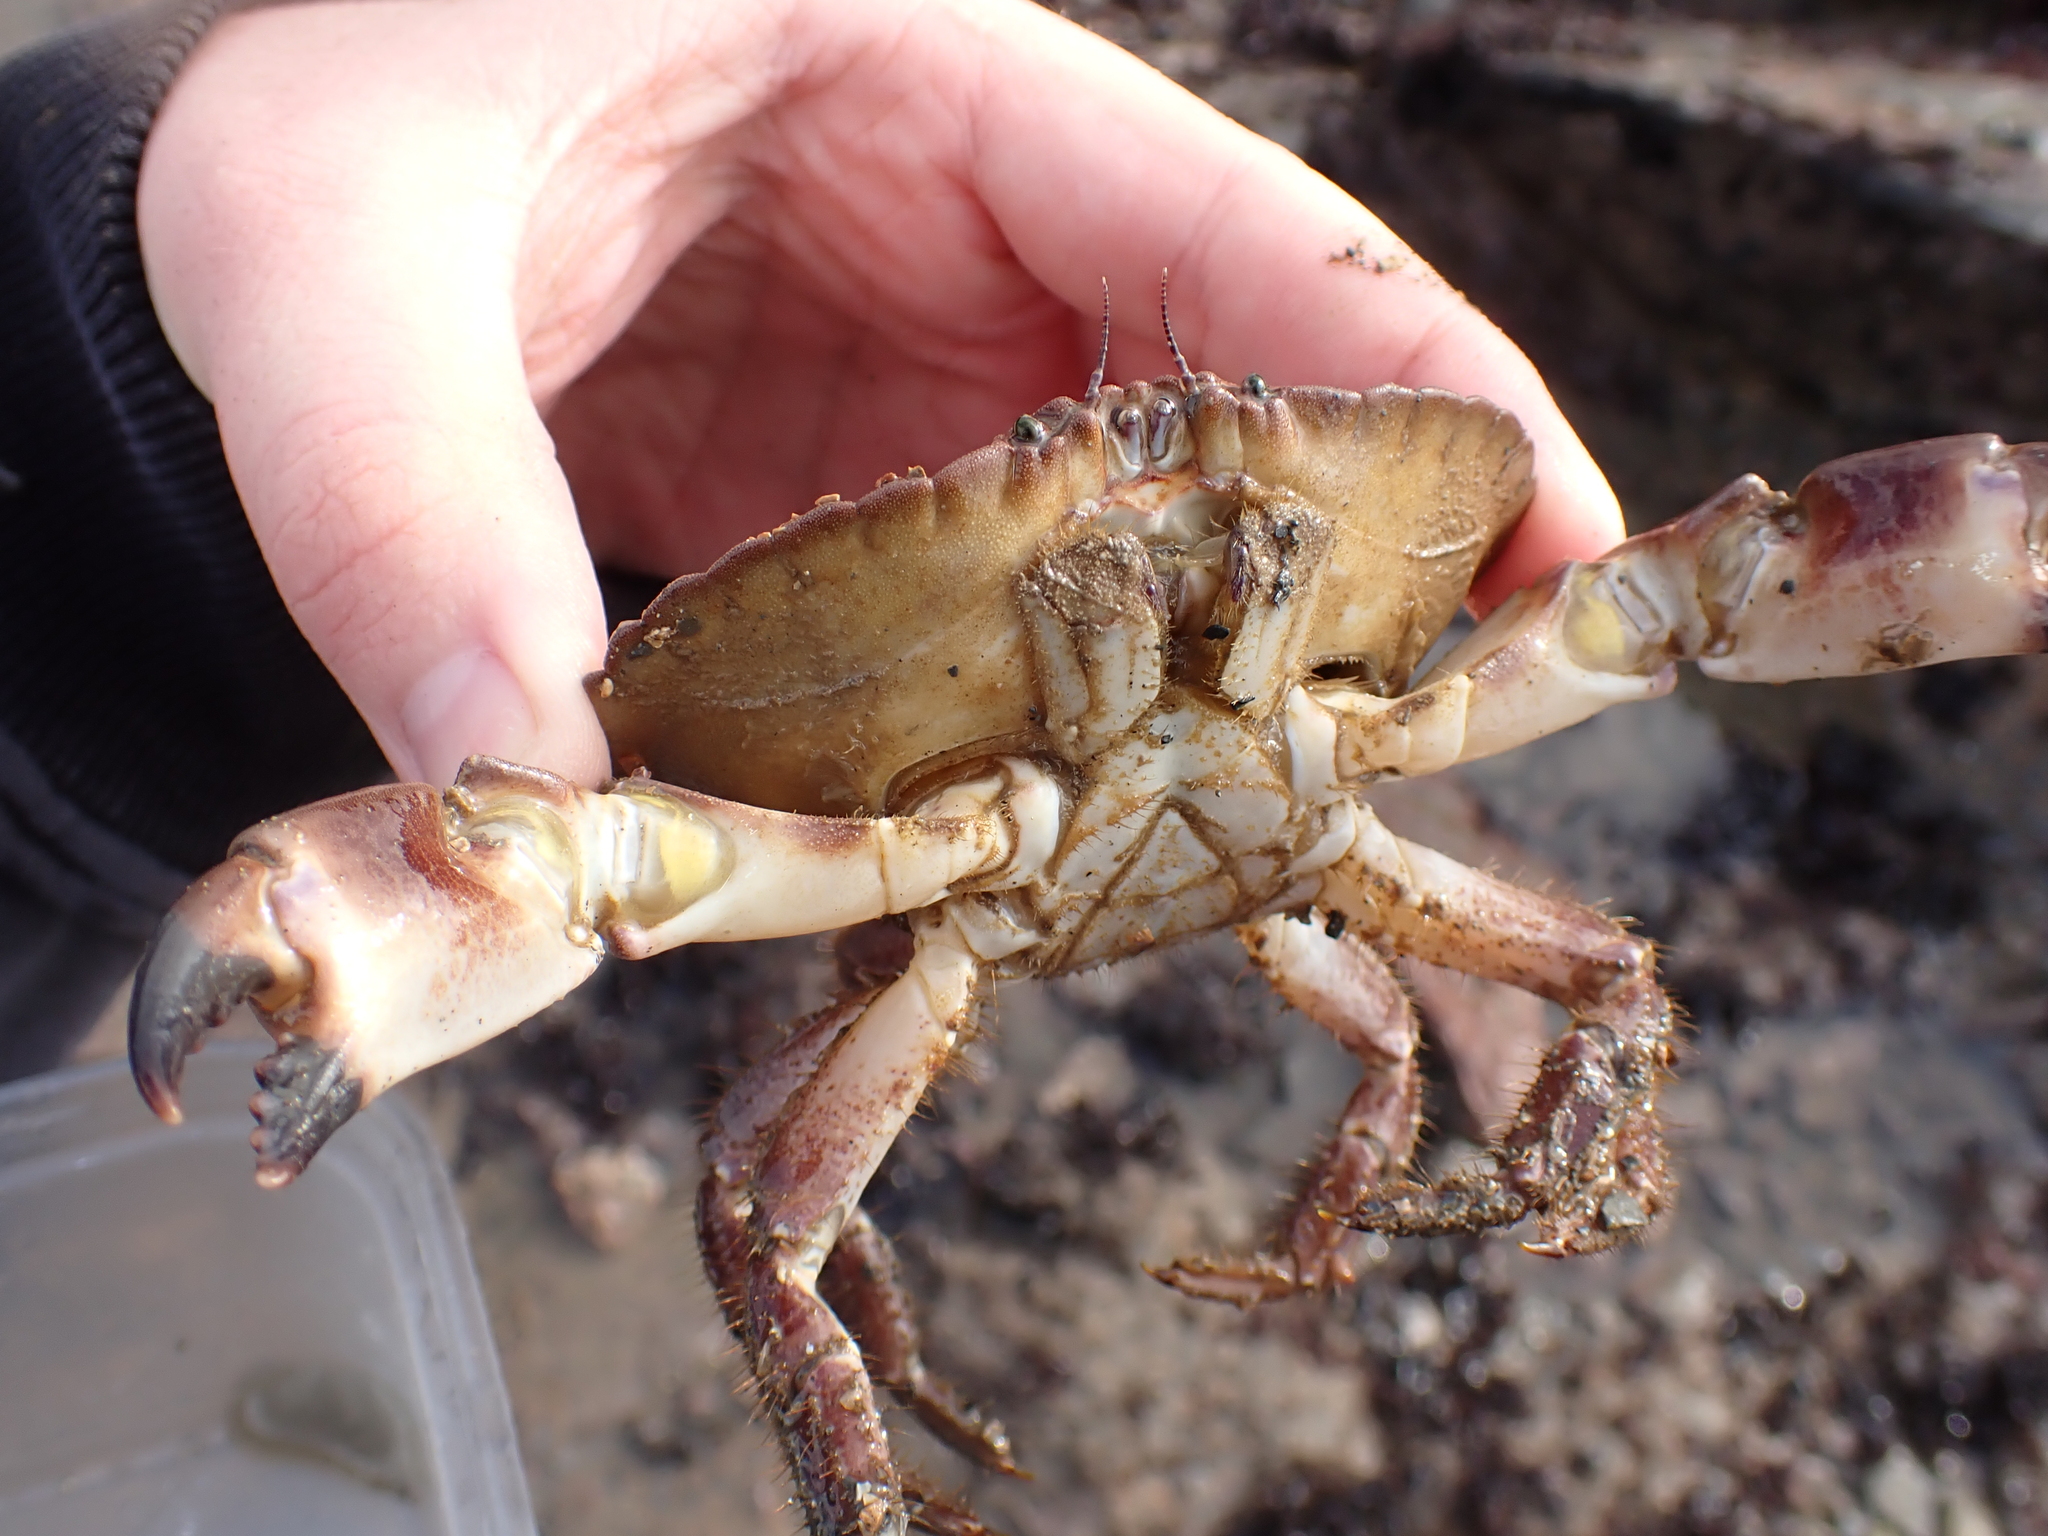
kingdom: Animalia
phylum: Arthropoda
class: Malacostraca
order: Decapoda
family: Cancridae
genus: Cancer
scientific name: Cancer pagurus
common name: Edible crab
